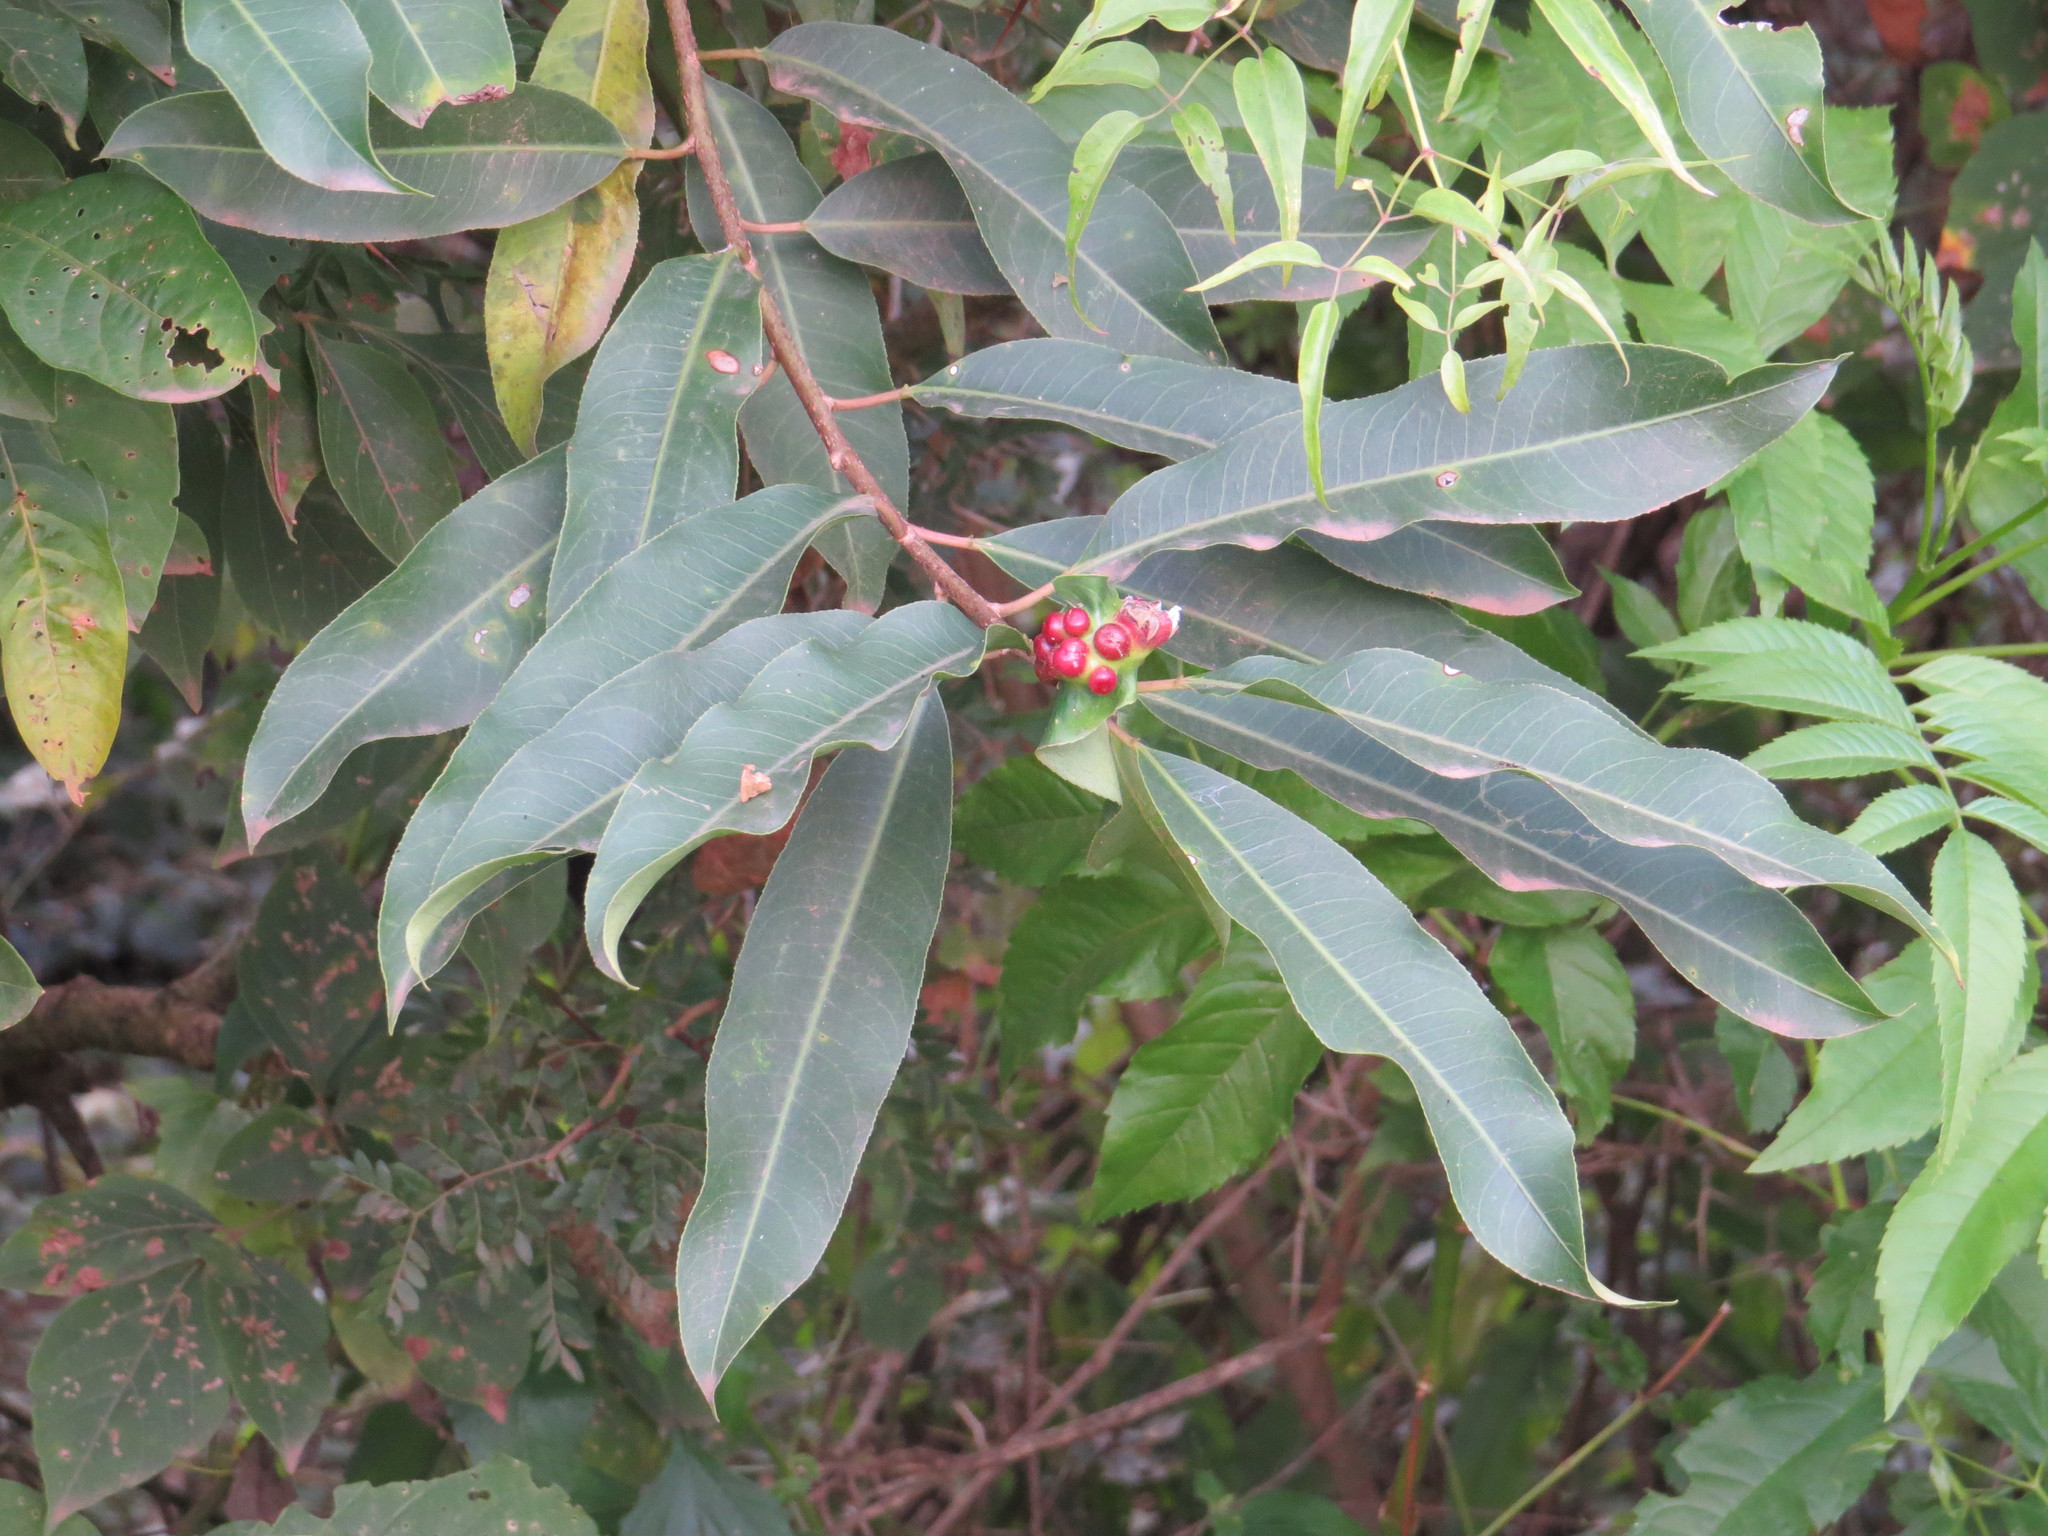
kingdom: Plantae
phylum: Tracheophyta
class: Magnoliopsida
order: Malpighiales
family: Euphorbiaceae
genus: Sapium
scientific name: Sapium glandulosum
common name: Milktree
